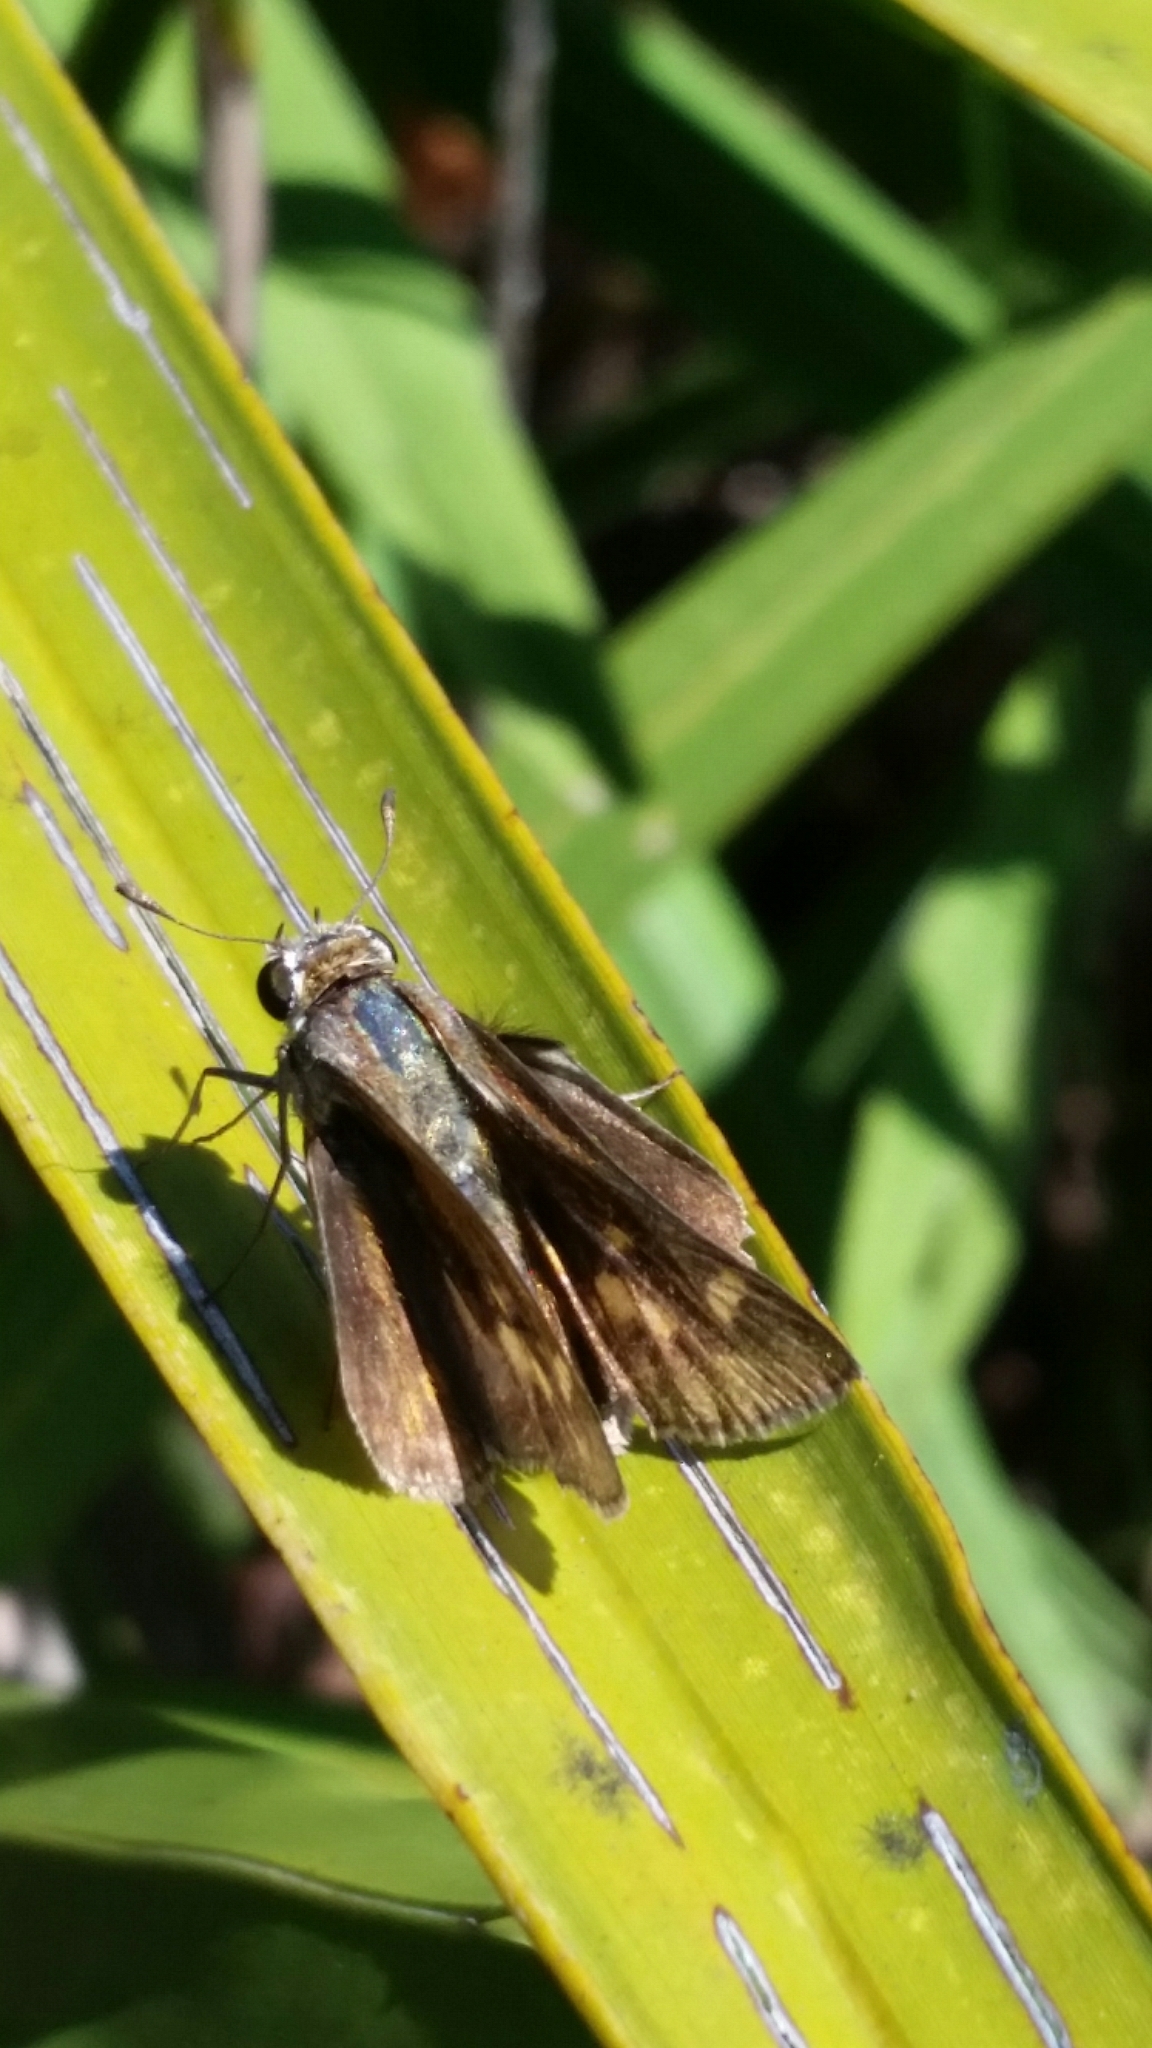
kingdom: Animalia
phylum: Arthropoda
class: Insecta
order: Lepidoptera
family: Hesperiidae
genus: Polites
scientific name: Polites vibex
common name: Whirlabout
